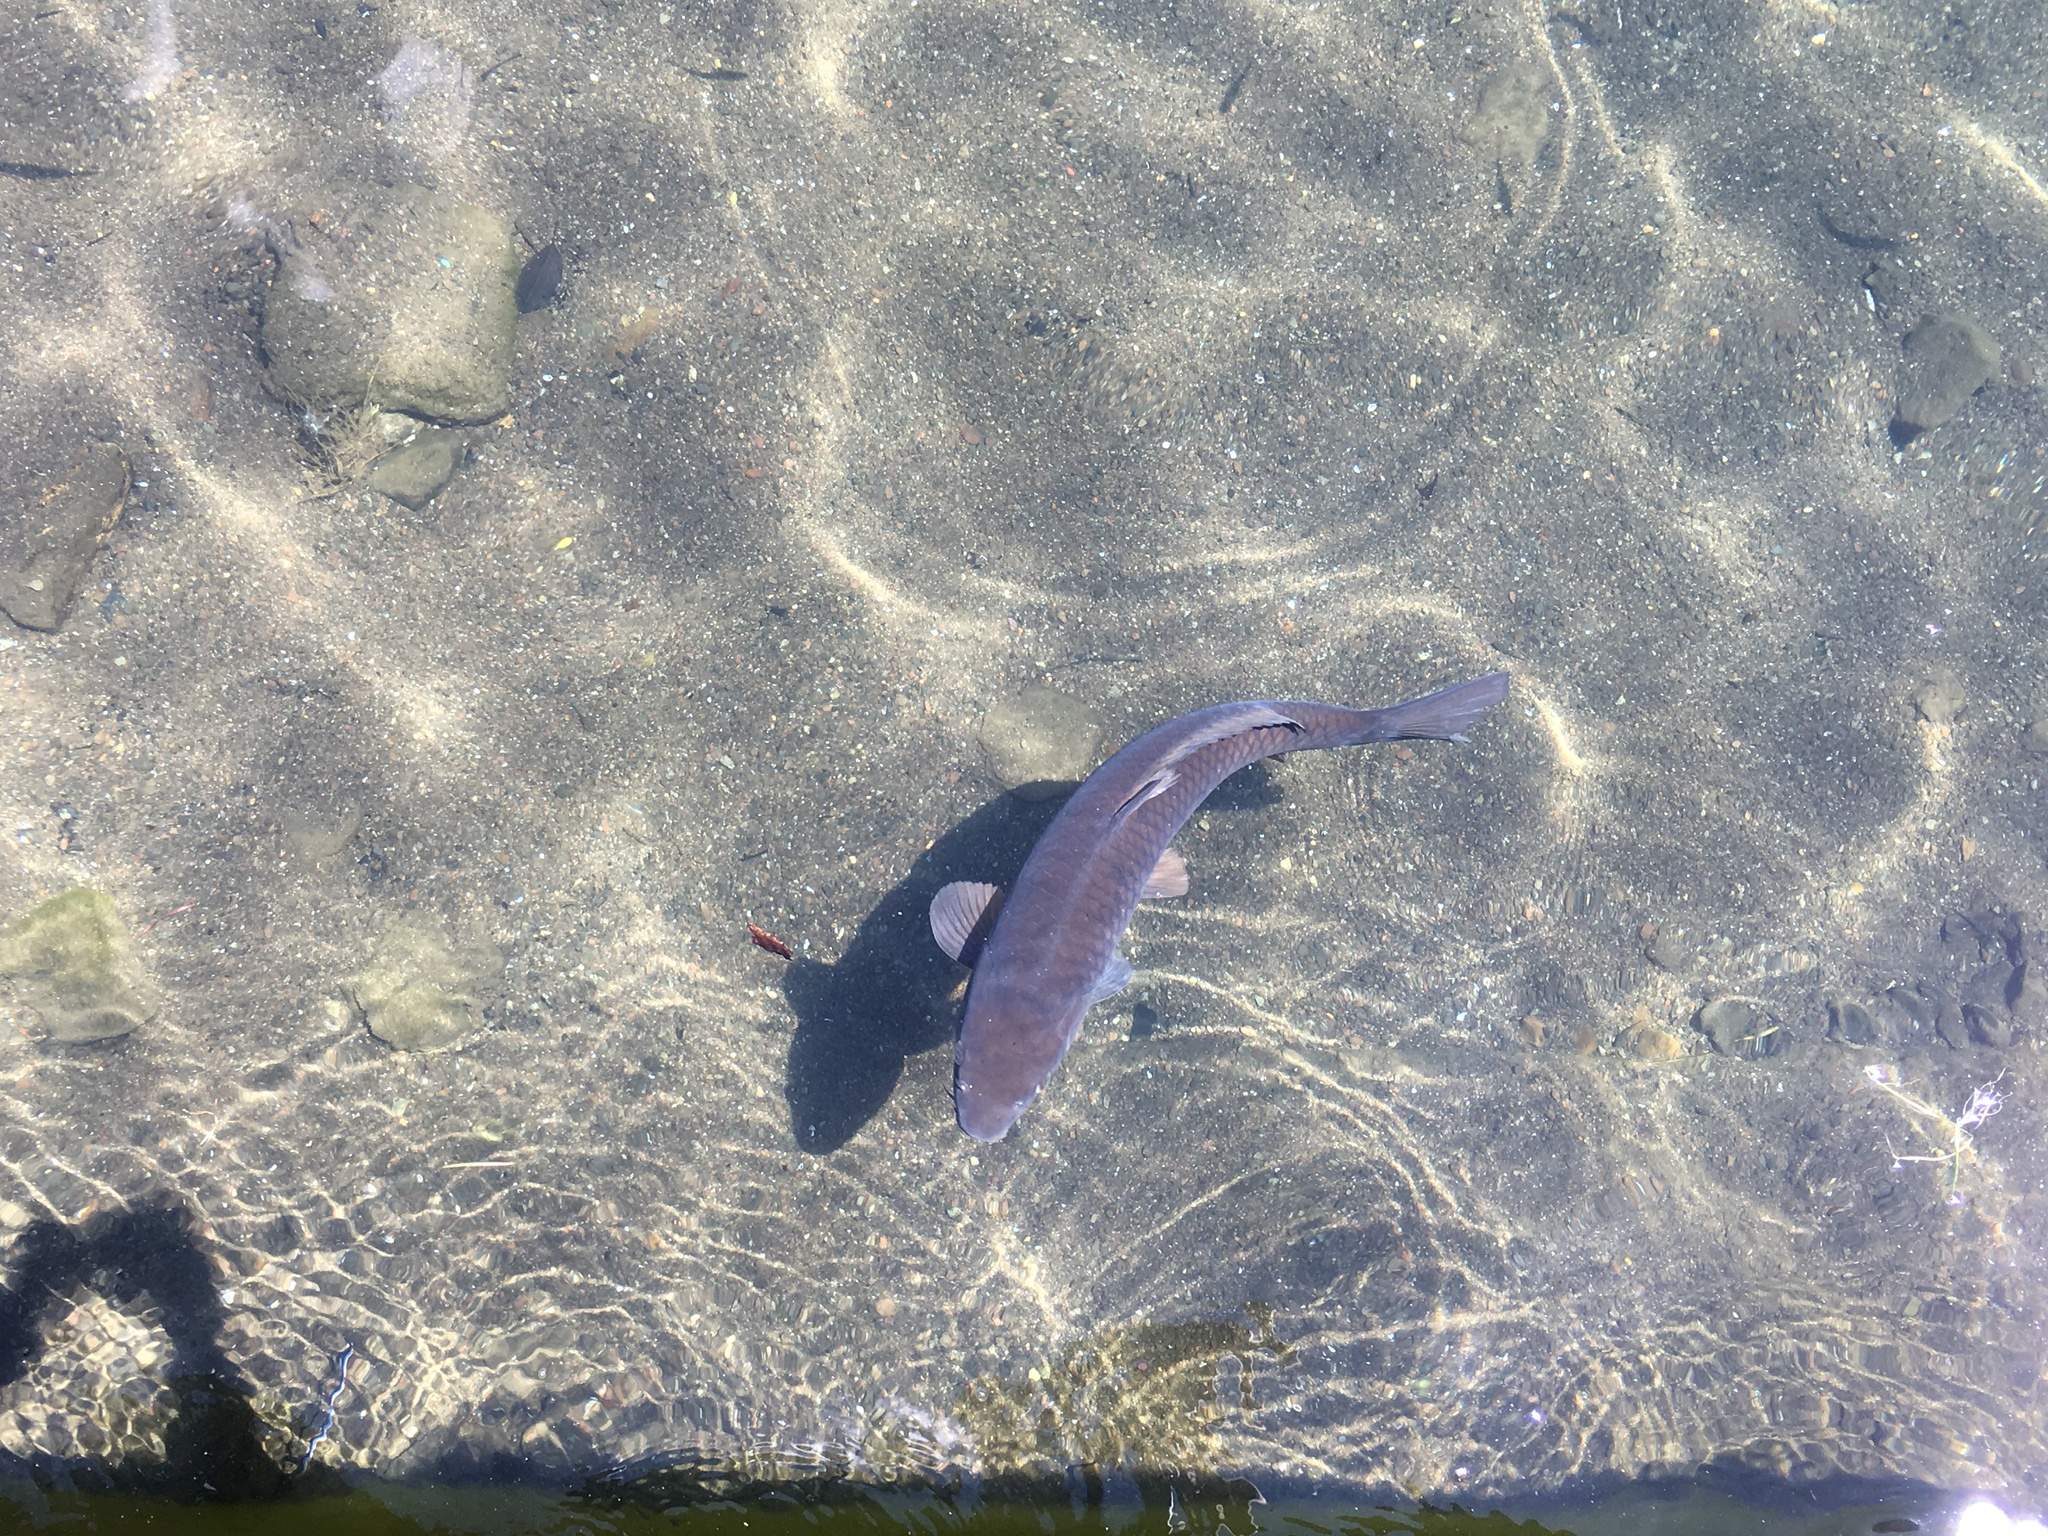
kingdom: Animalia
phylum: Chordata
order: Cypriniformes
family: Cyprinidae
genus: Cyprinus
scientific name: Cyprinus rubrofuscus
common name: Koi
